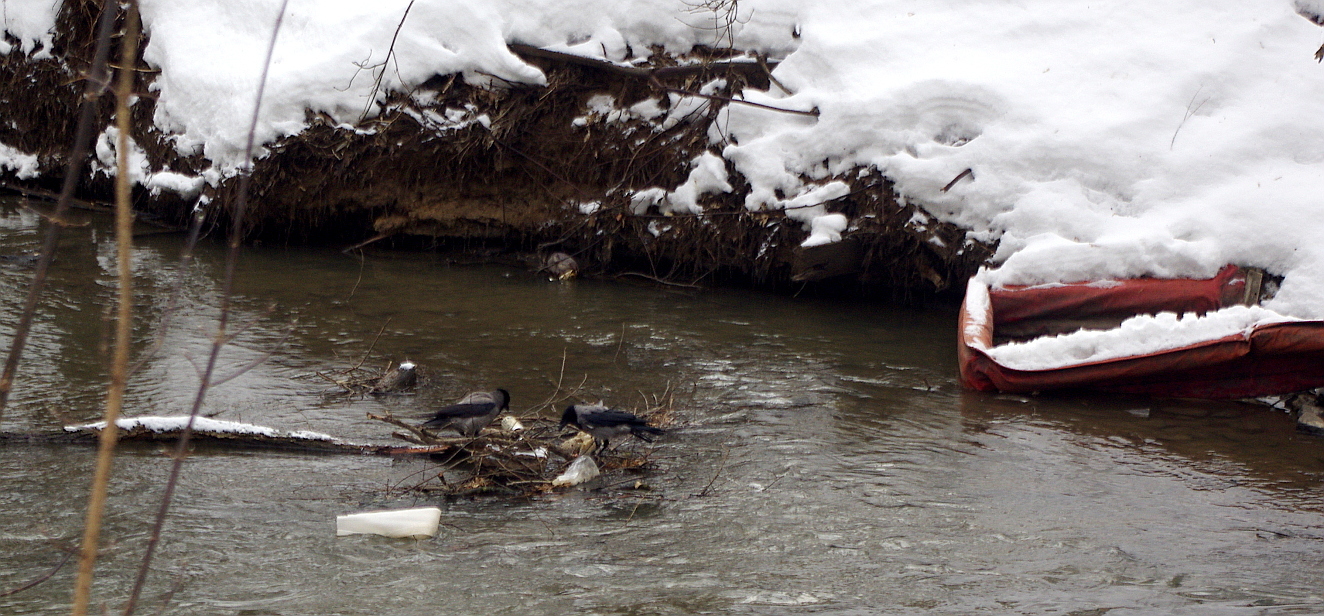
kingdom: Animalia
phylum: Chordata
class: Aves
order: Passeriformes
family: Corvidae
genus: Corvus
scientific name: Corvus cornix
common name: Hooded crow
